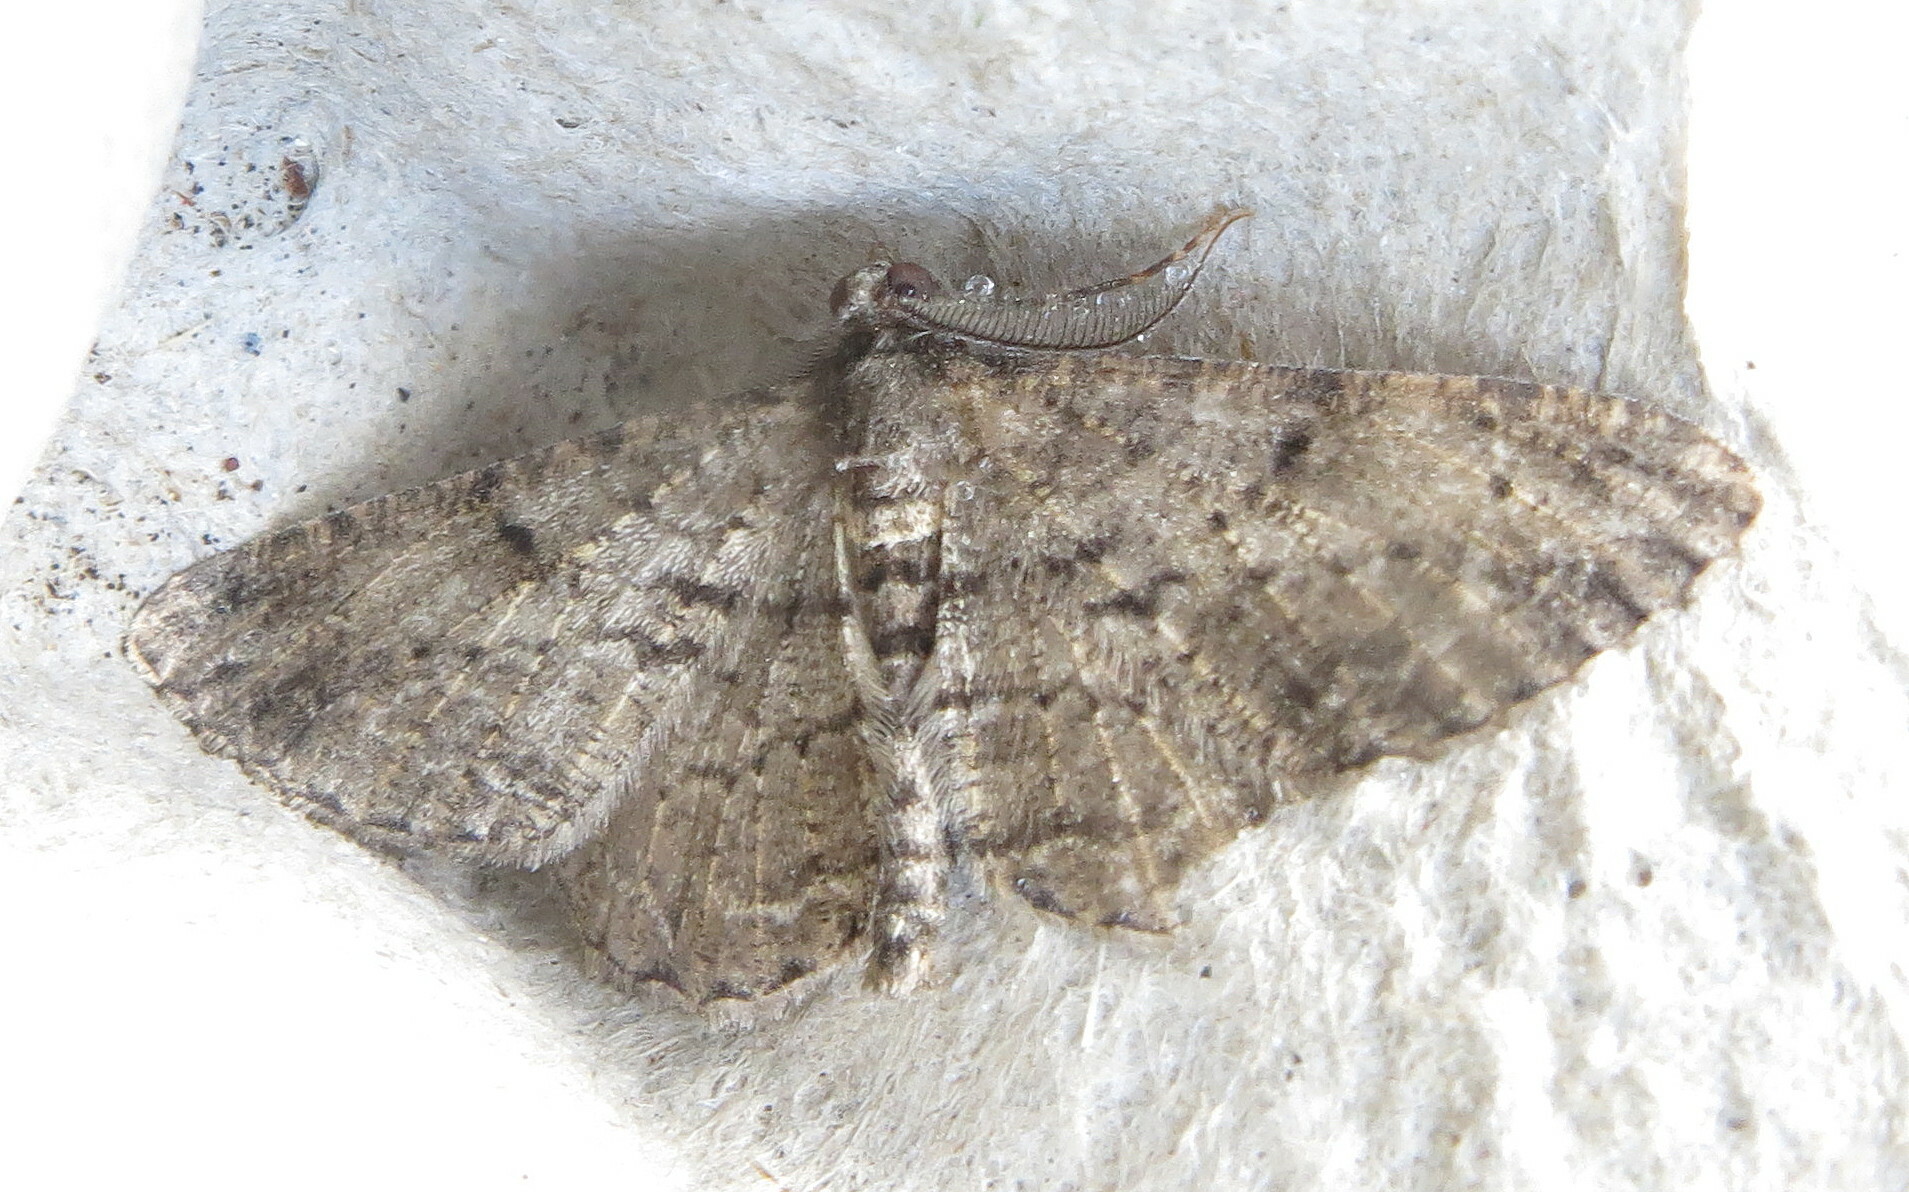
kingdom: Animalia
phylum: Arthropoda
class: Insecta
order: Lepidoptera
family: Geometridae
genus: Peribatodes
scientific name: Peribatodes rhomboidaria
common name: Willow beauty
